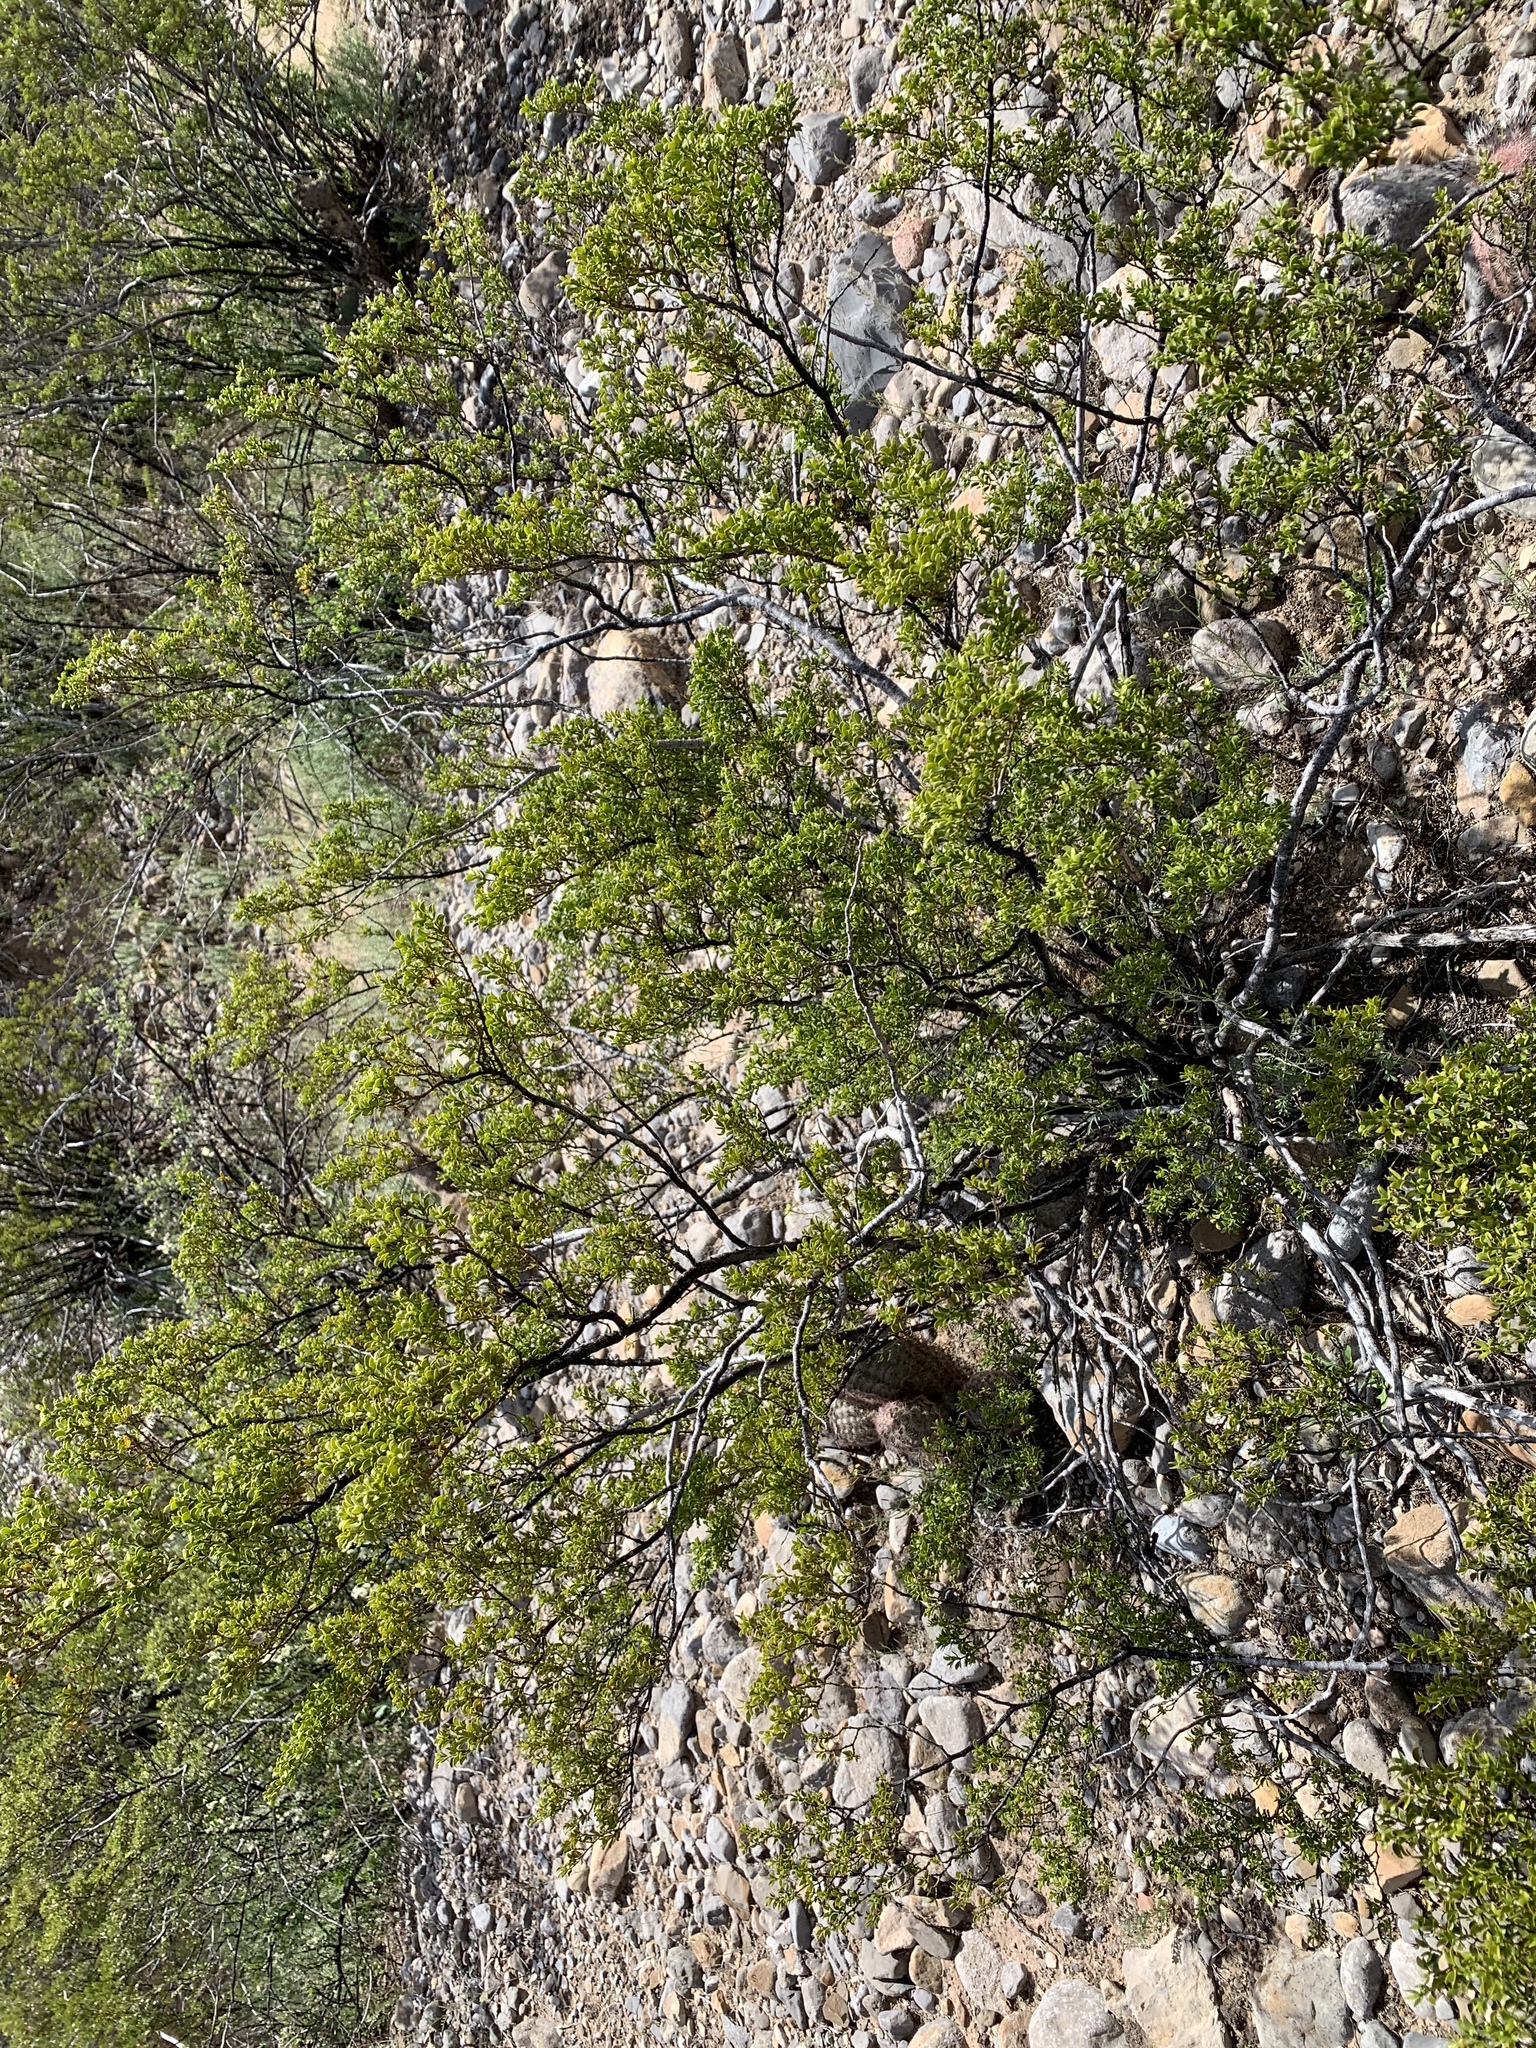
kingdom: Plantae
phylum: Tracheophyta
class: Magnoliopsida
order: Zygophyllales
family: Zygophyllaceae
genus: Larrea
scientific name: Larrea tridentata
